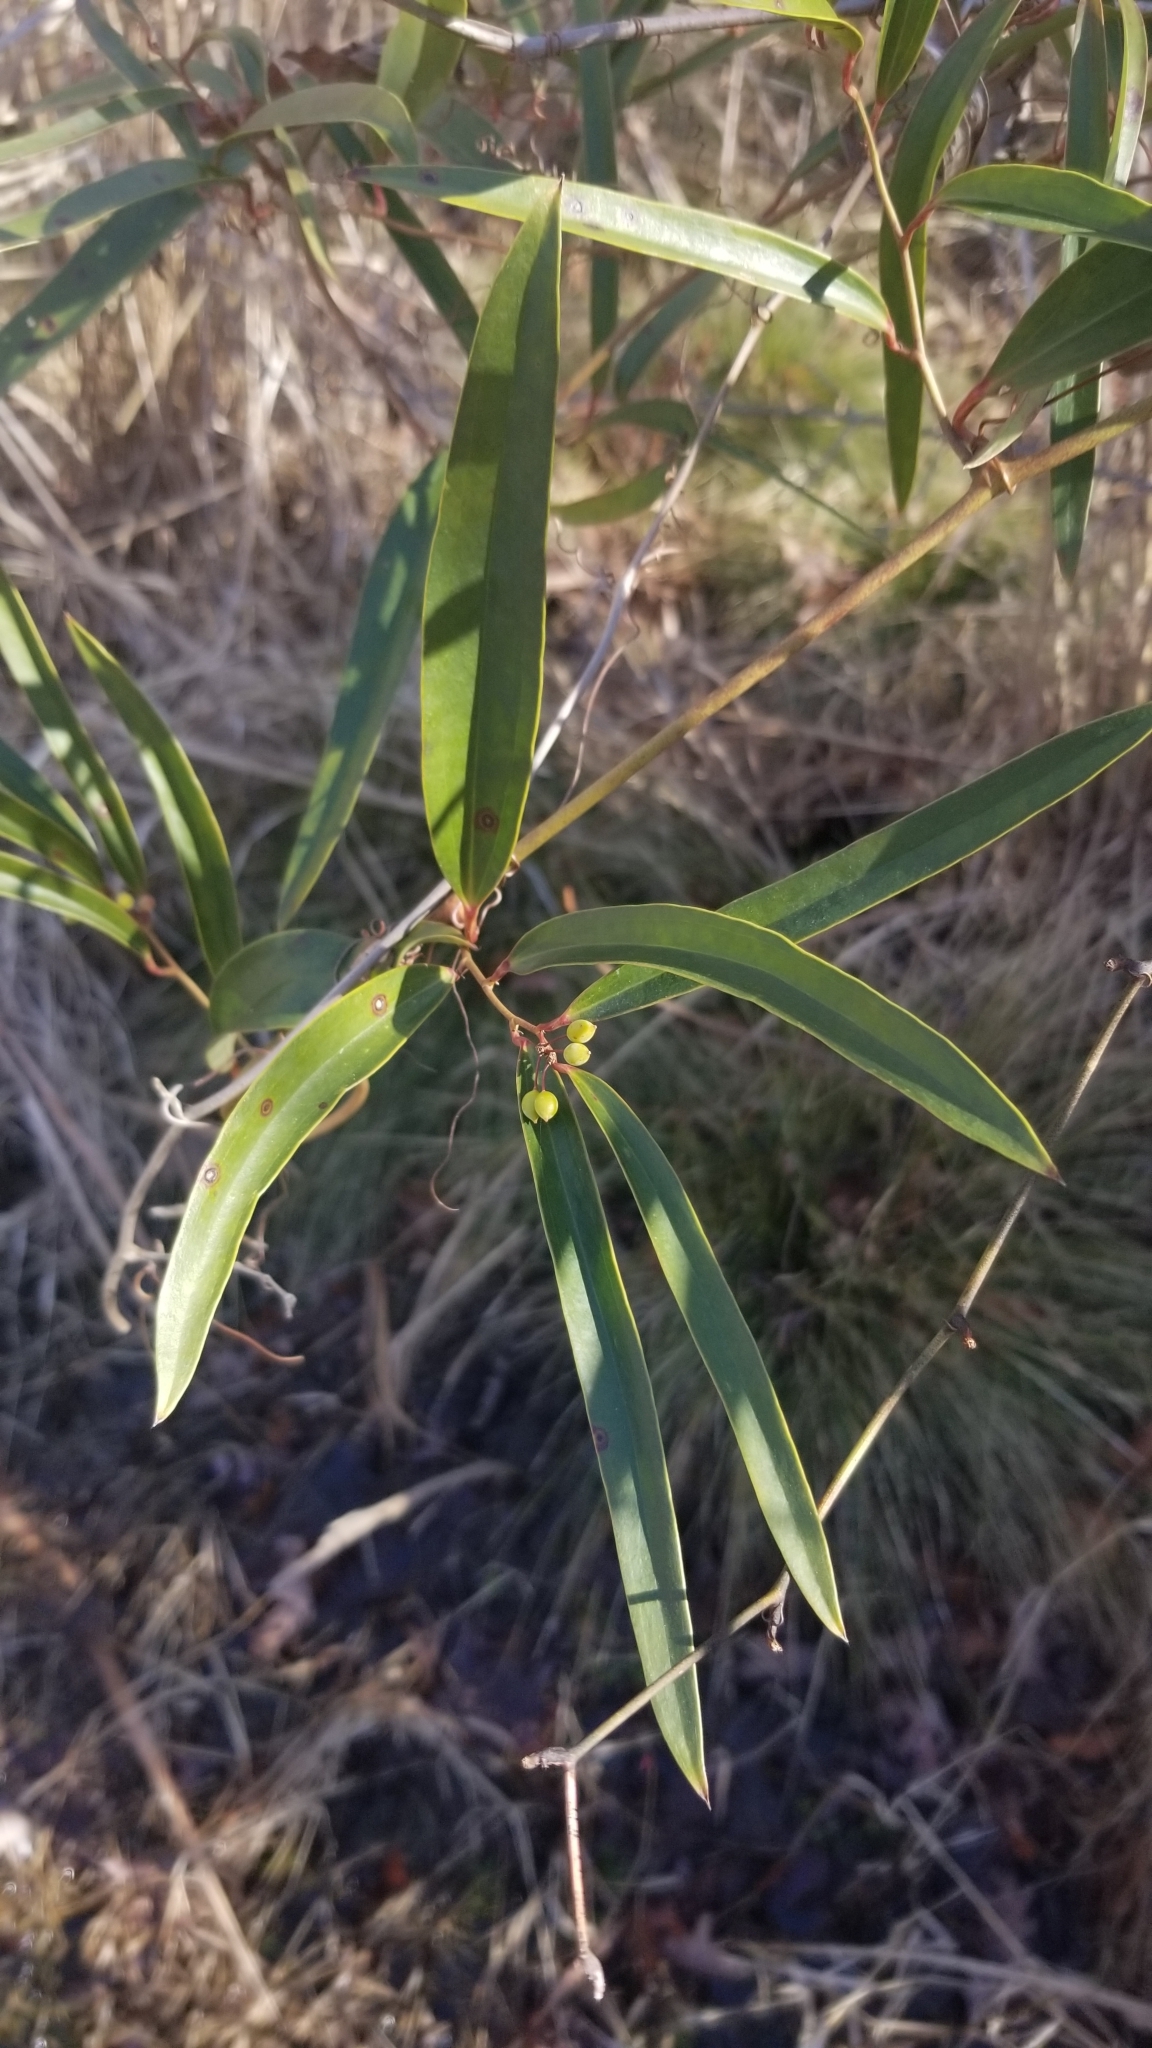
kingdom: Plantae
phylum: Tracheophyta
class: Liliopsida
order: Liliales
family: Smilacaceae
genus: Smilax
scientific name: Smilax laurifolia
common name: Bamboovine
